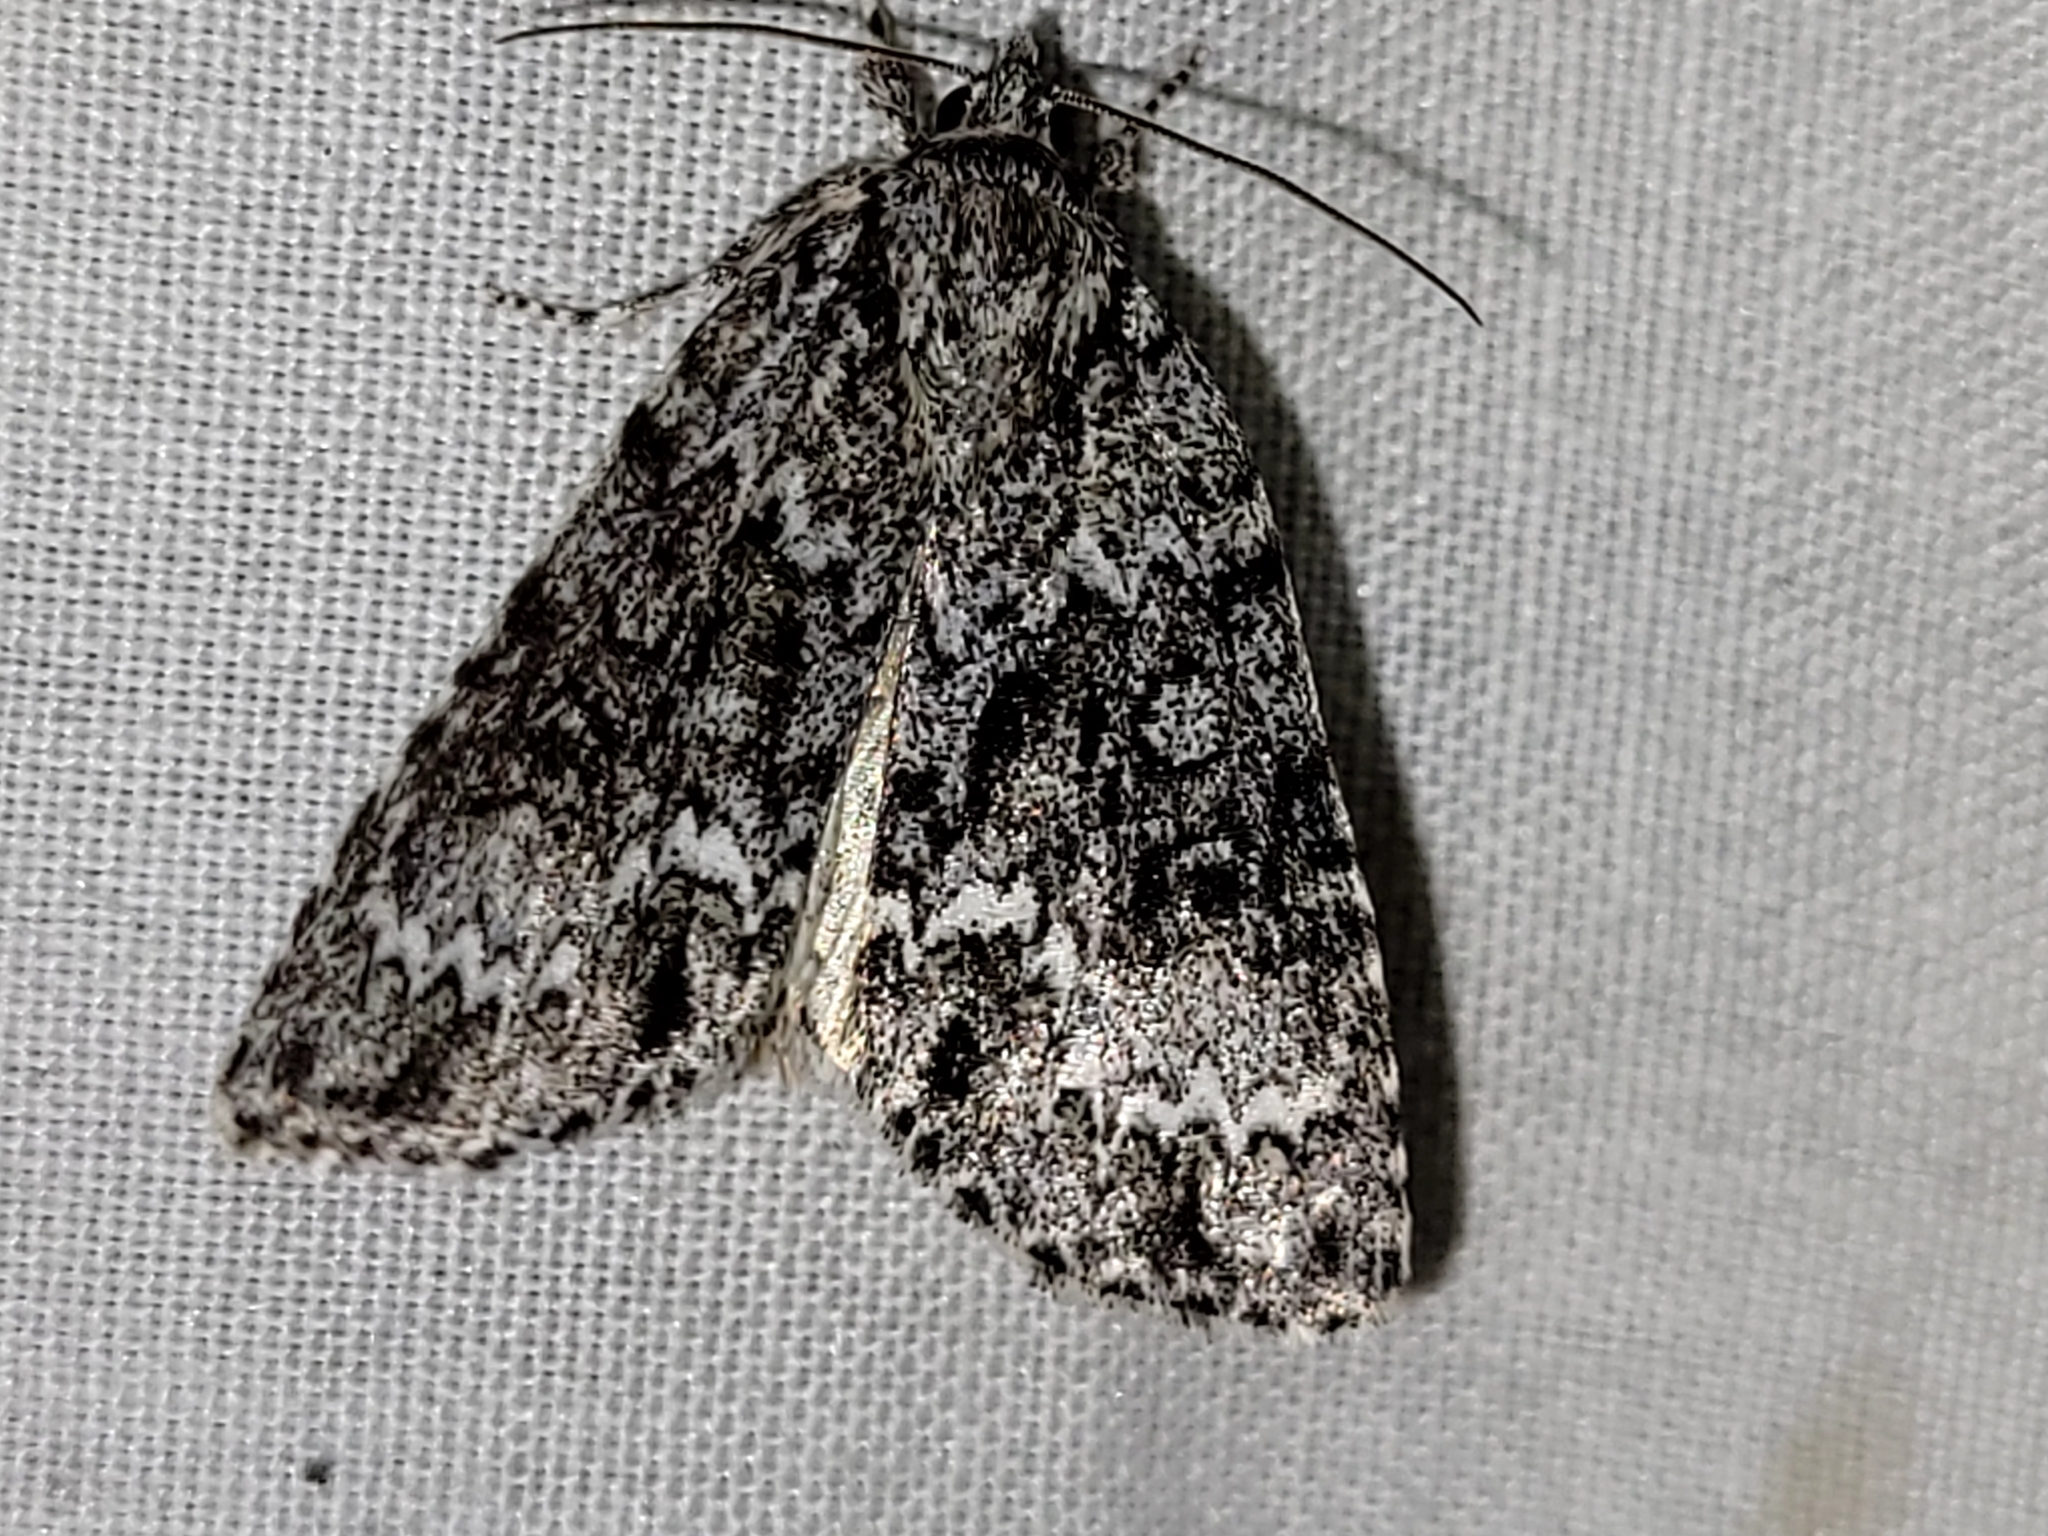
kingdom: Animalia
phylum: Arthropoda
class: Insecta
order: Lepidoptera
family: Noctuidae
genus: Acronicta
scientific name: Acronicta fragilis
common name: Fragile dagger
